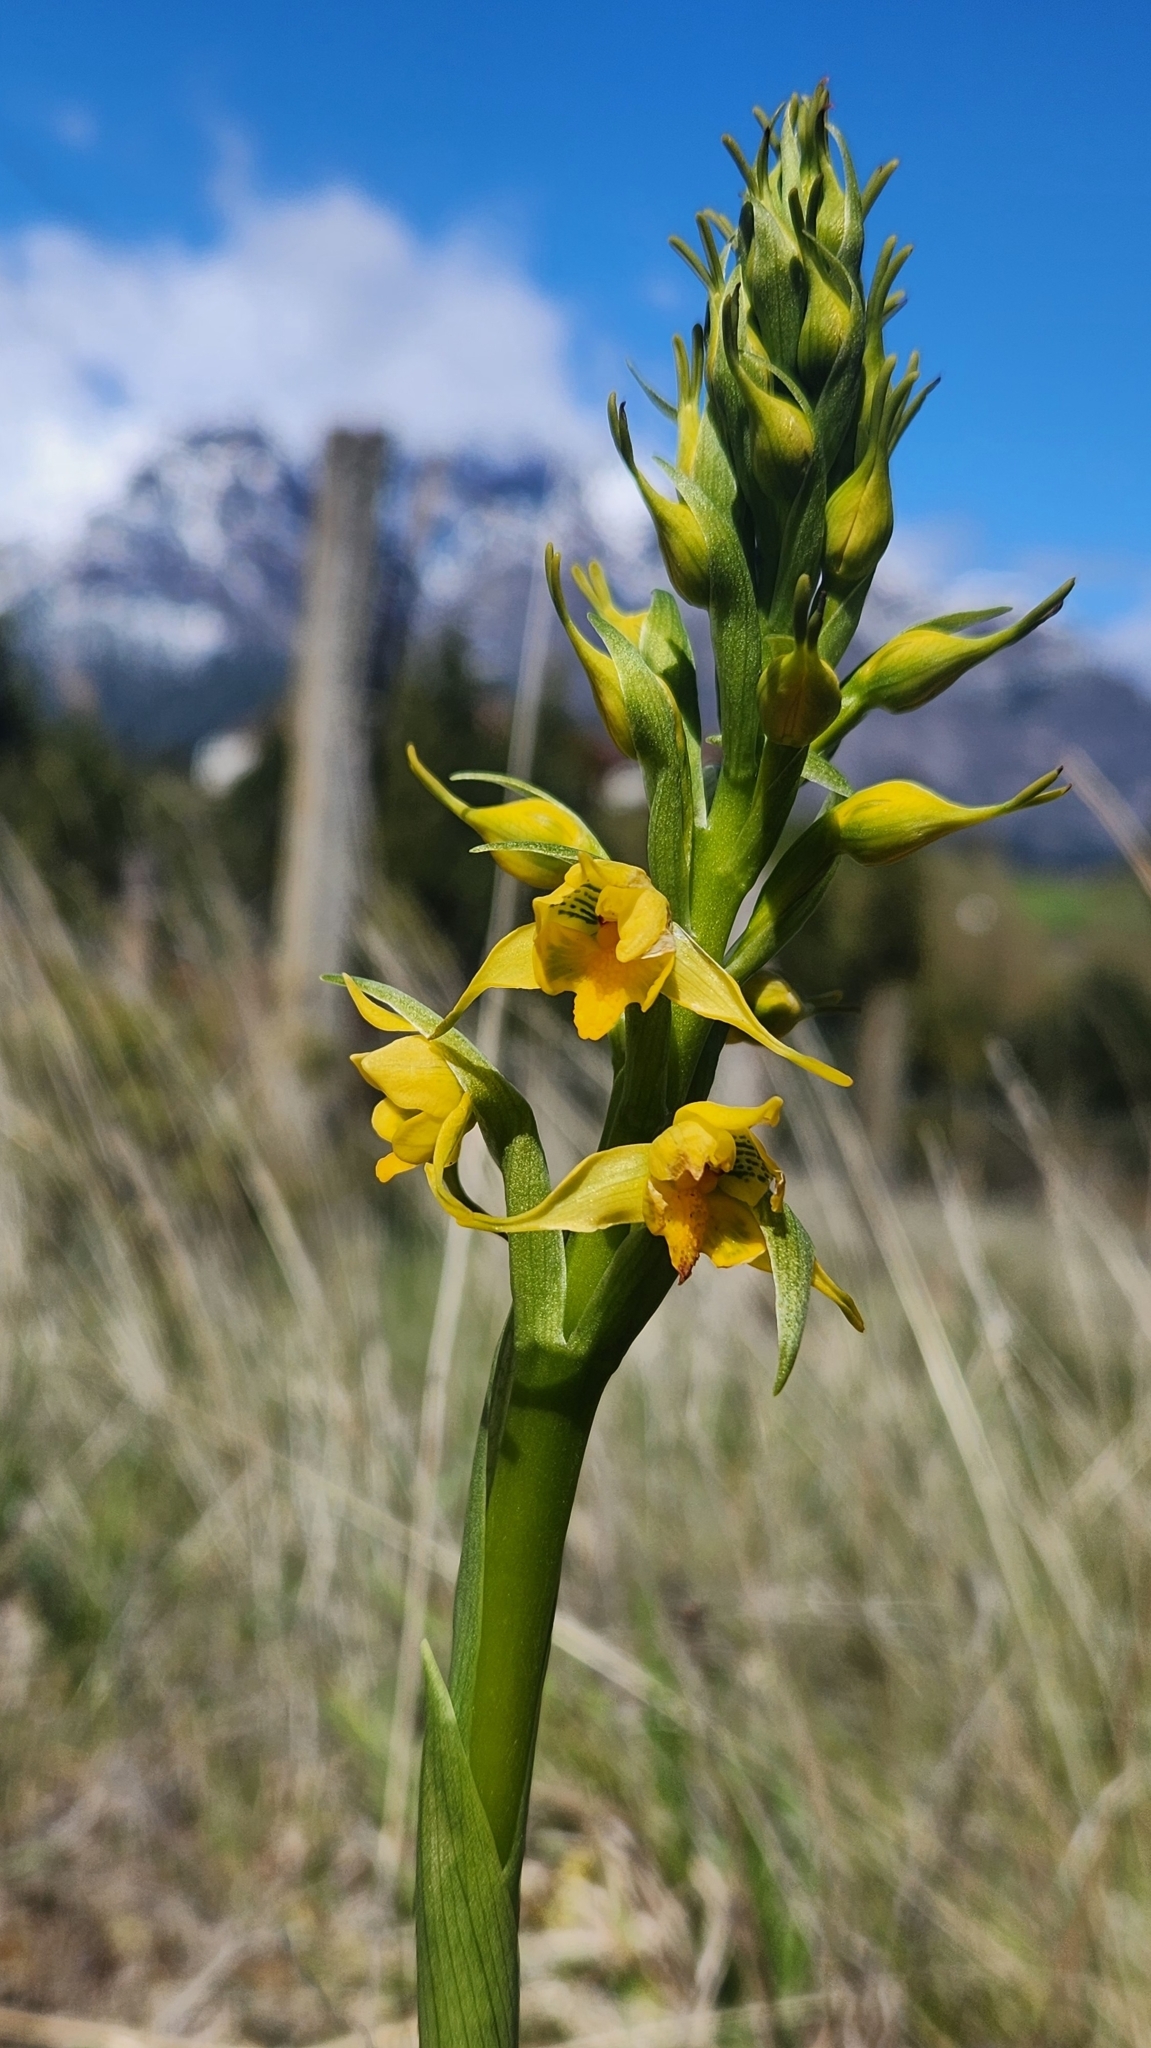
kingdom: Plantae
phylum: Tracheophyta
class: Liliopsida
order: Asparagales
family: Orchidaceae
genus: Gavilea
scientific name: Gavilea odoratissima
